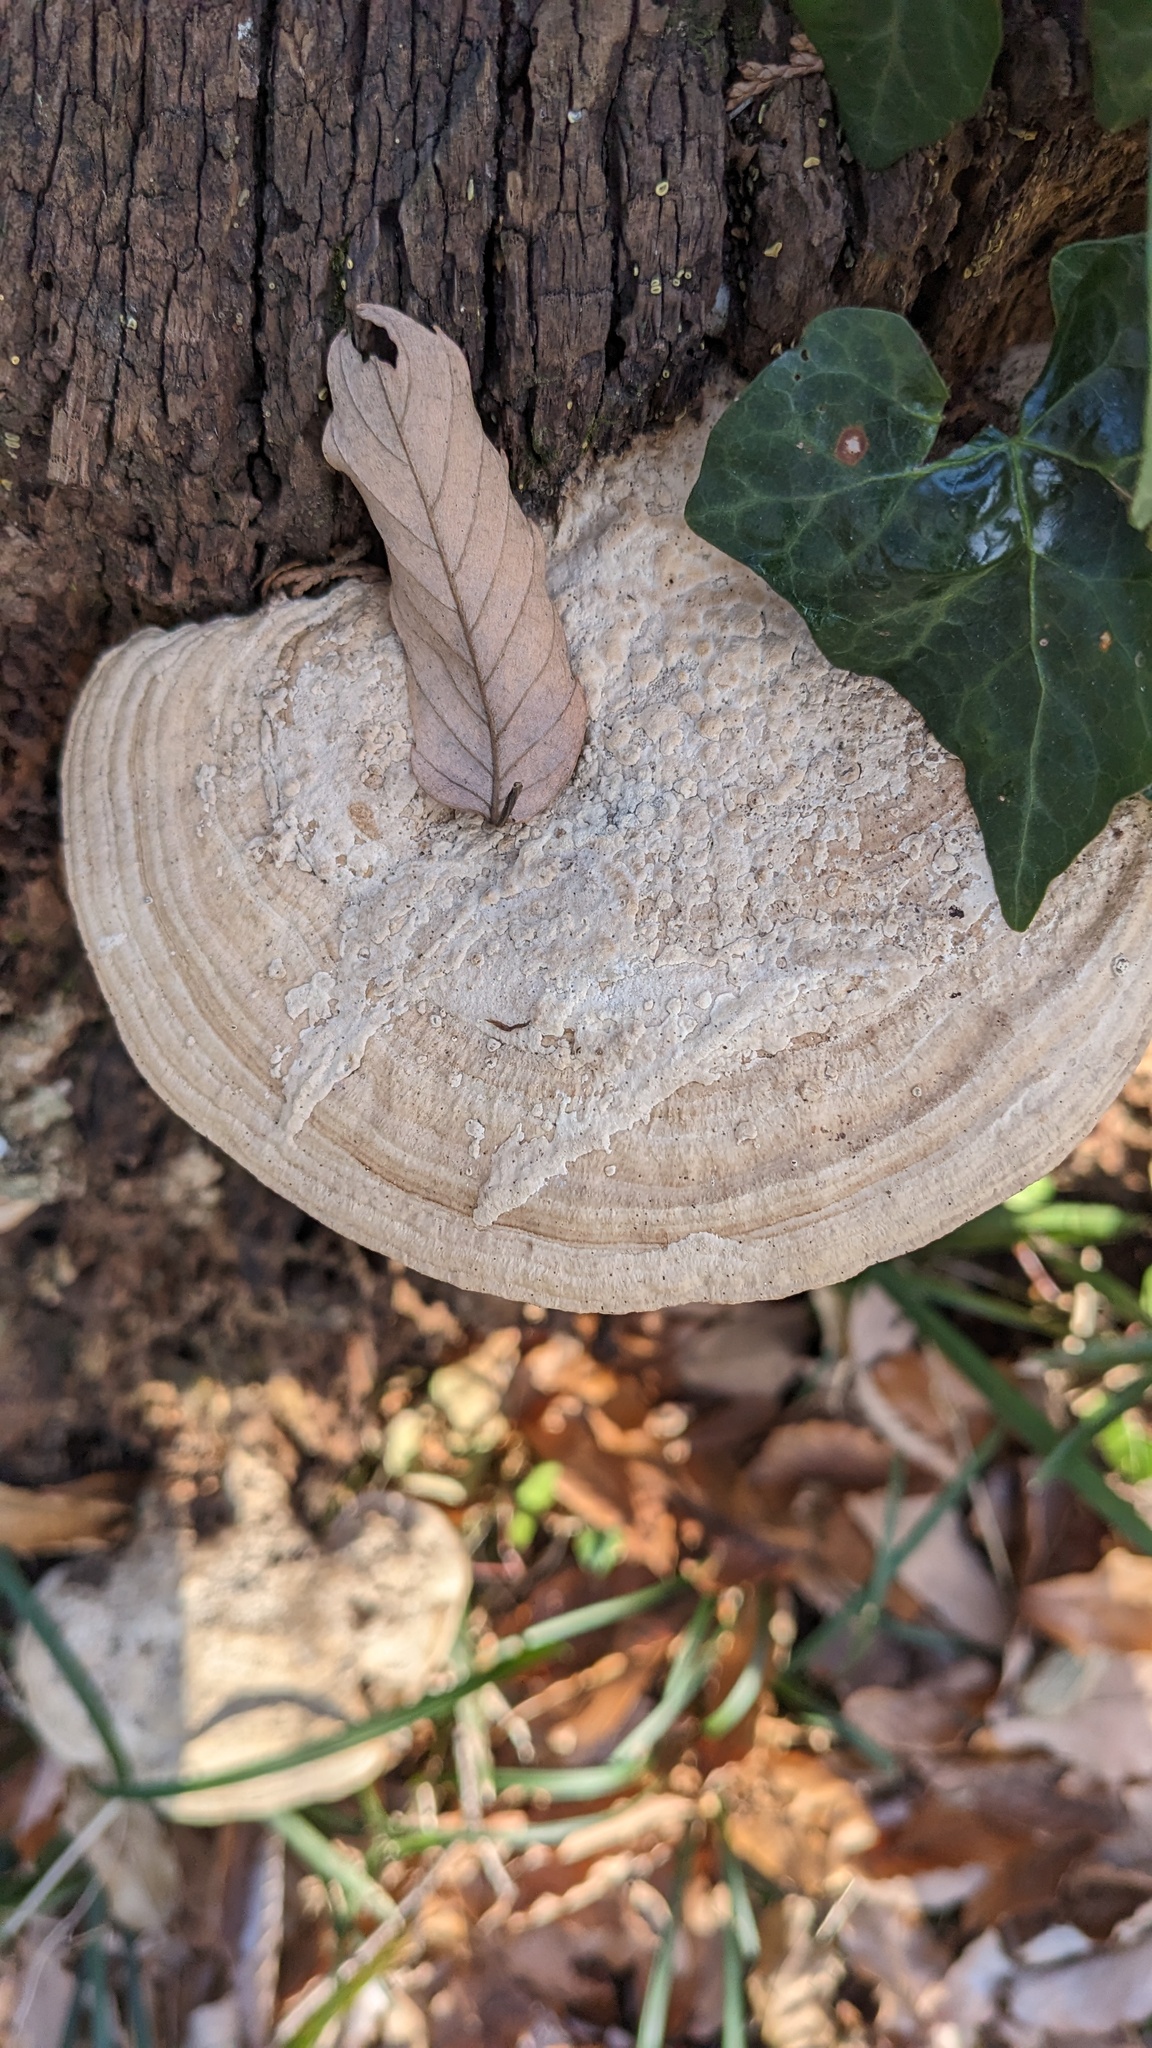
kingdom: Fungi
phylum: Basidiomycota
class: Agaricomycetes
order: Polyporales
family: Fomitopsidaceae
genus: Fomitopsis
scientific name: Fomitopsis
